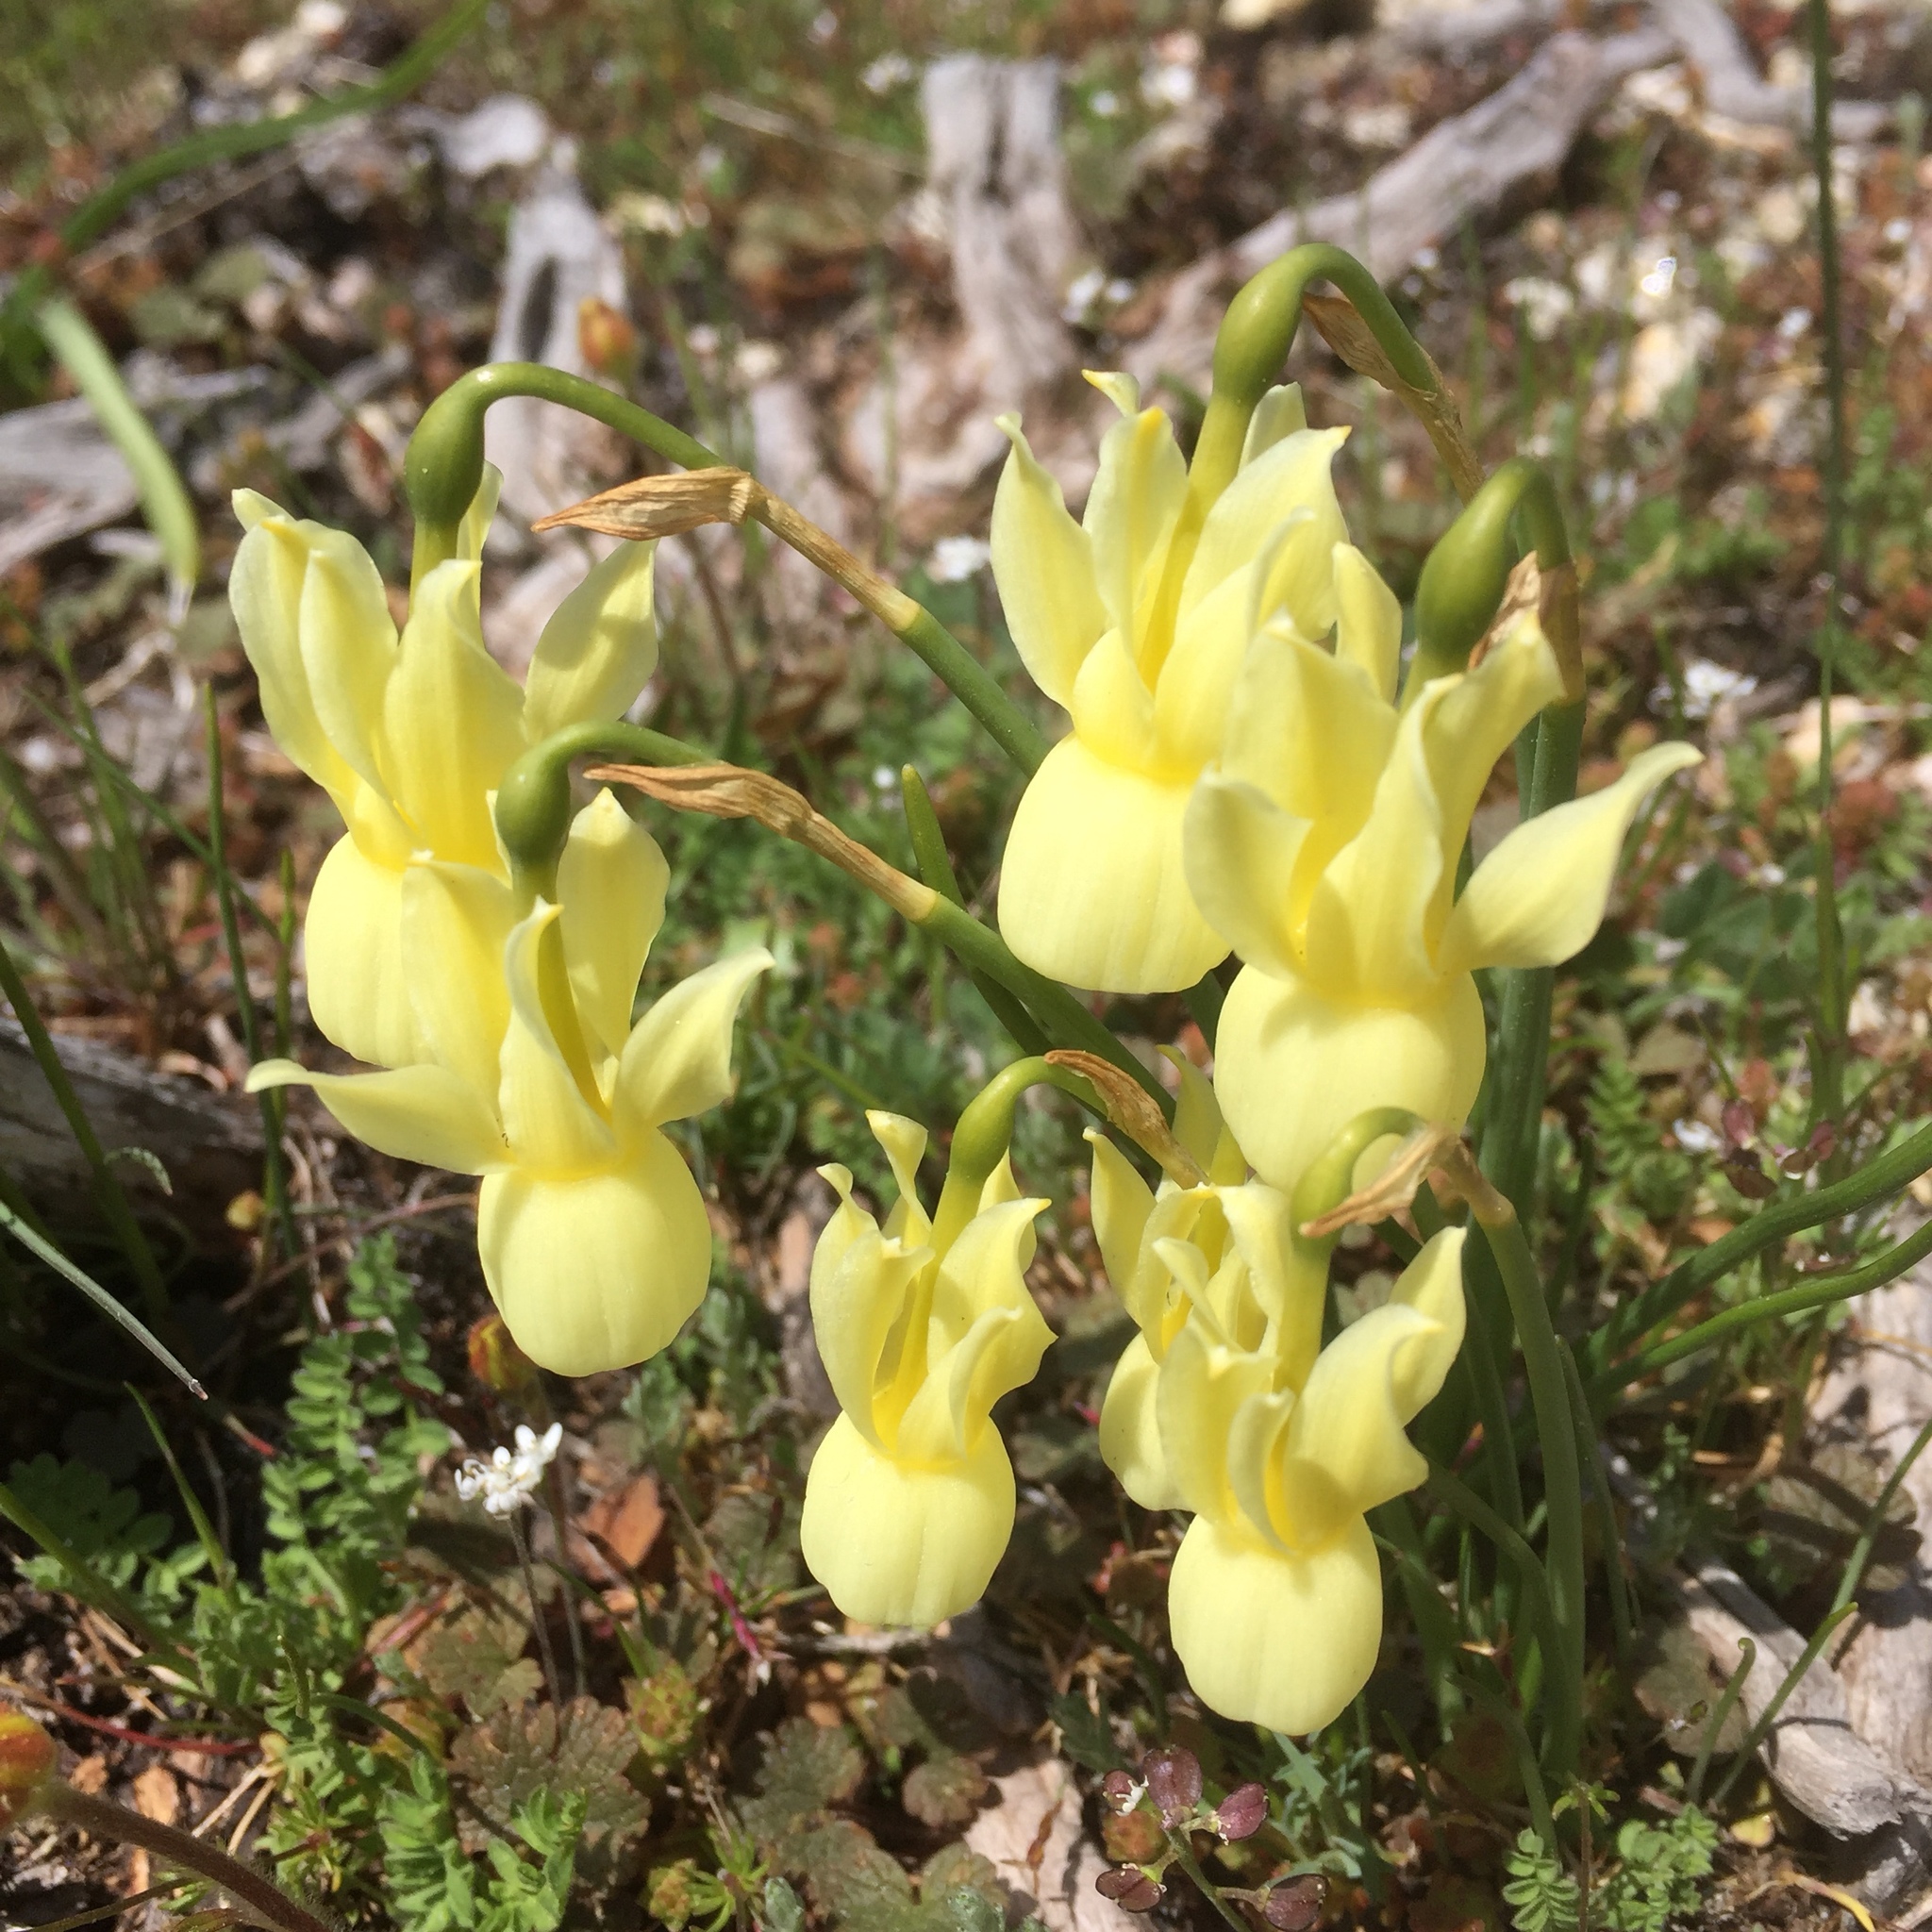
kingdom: Plantae
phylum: Tracheophyta
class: Liliopsida
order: Asparagales
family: Amaryllidaceae
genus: Narcissus
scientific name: Narcissus triandrus
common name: Angel's-tears
